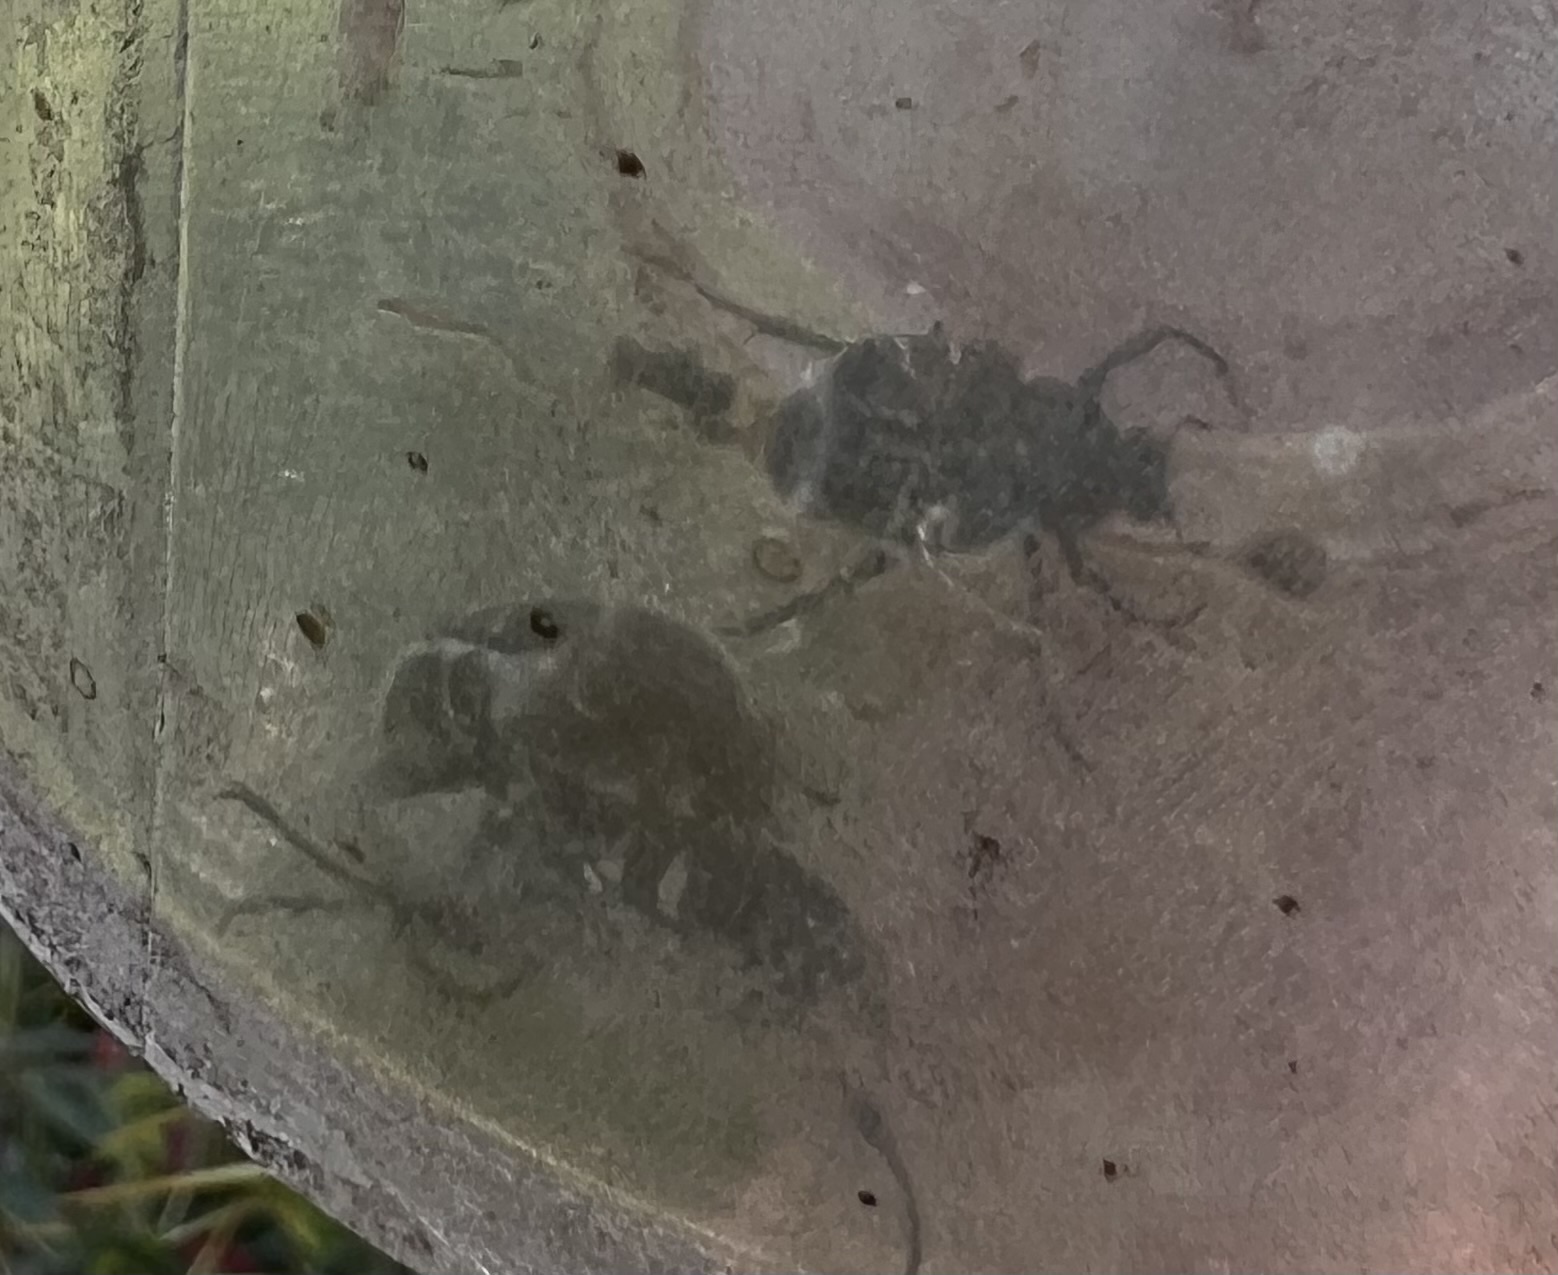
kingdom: Animalia
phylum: Arthropoda
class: Insecta
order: Coleoptera
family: Scarabaeidae
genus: Trichiotinus
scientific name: Trichiotinus texanus
